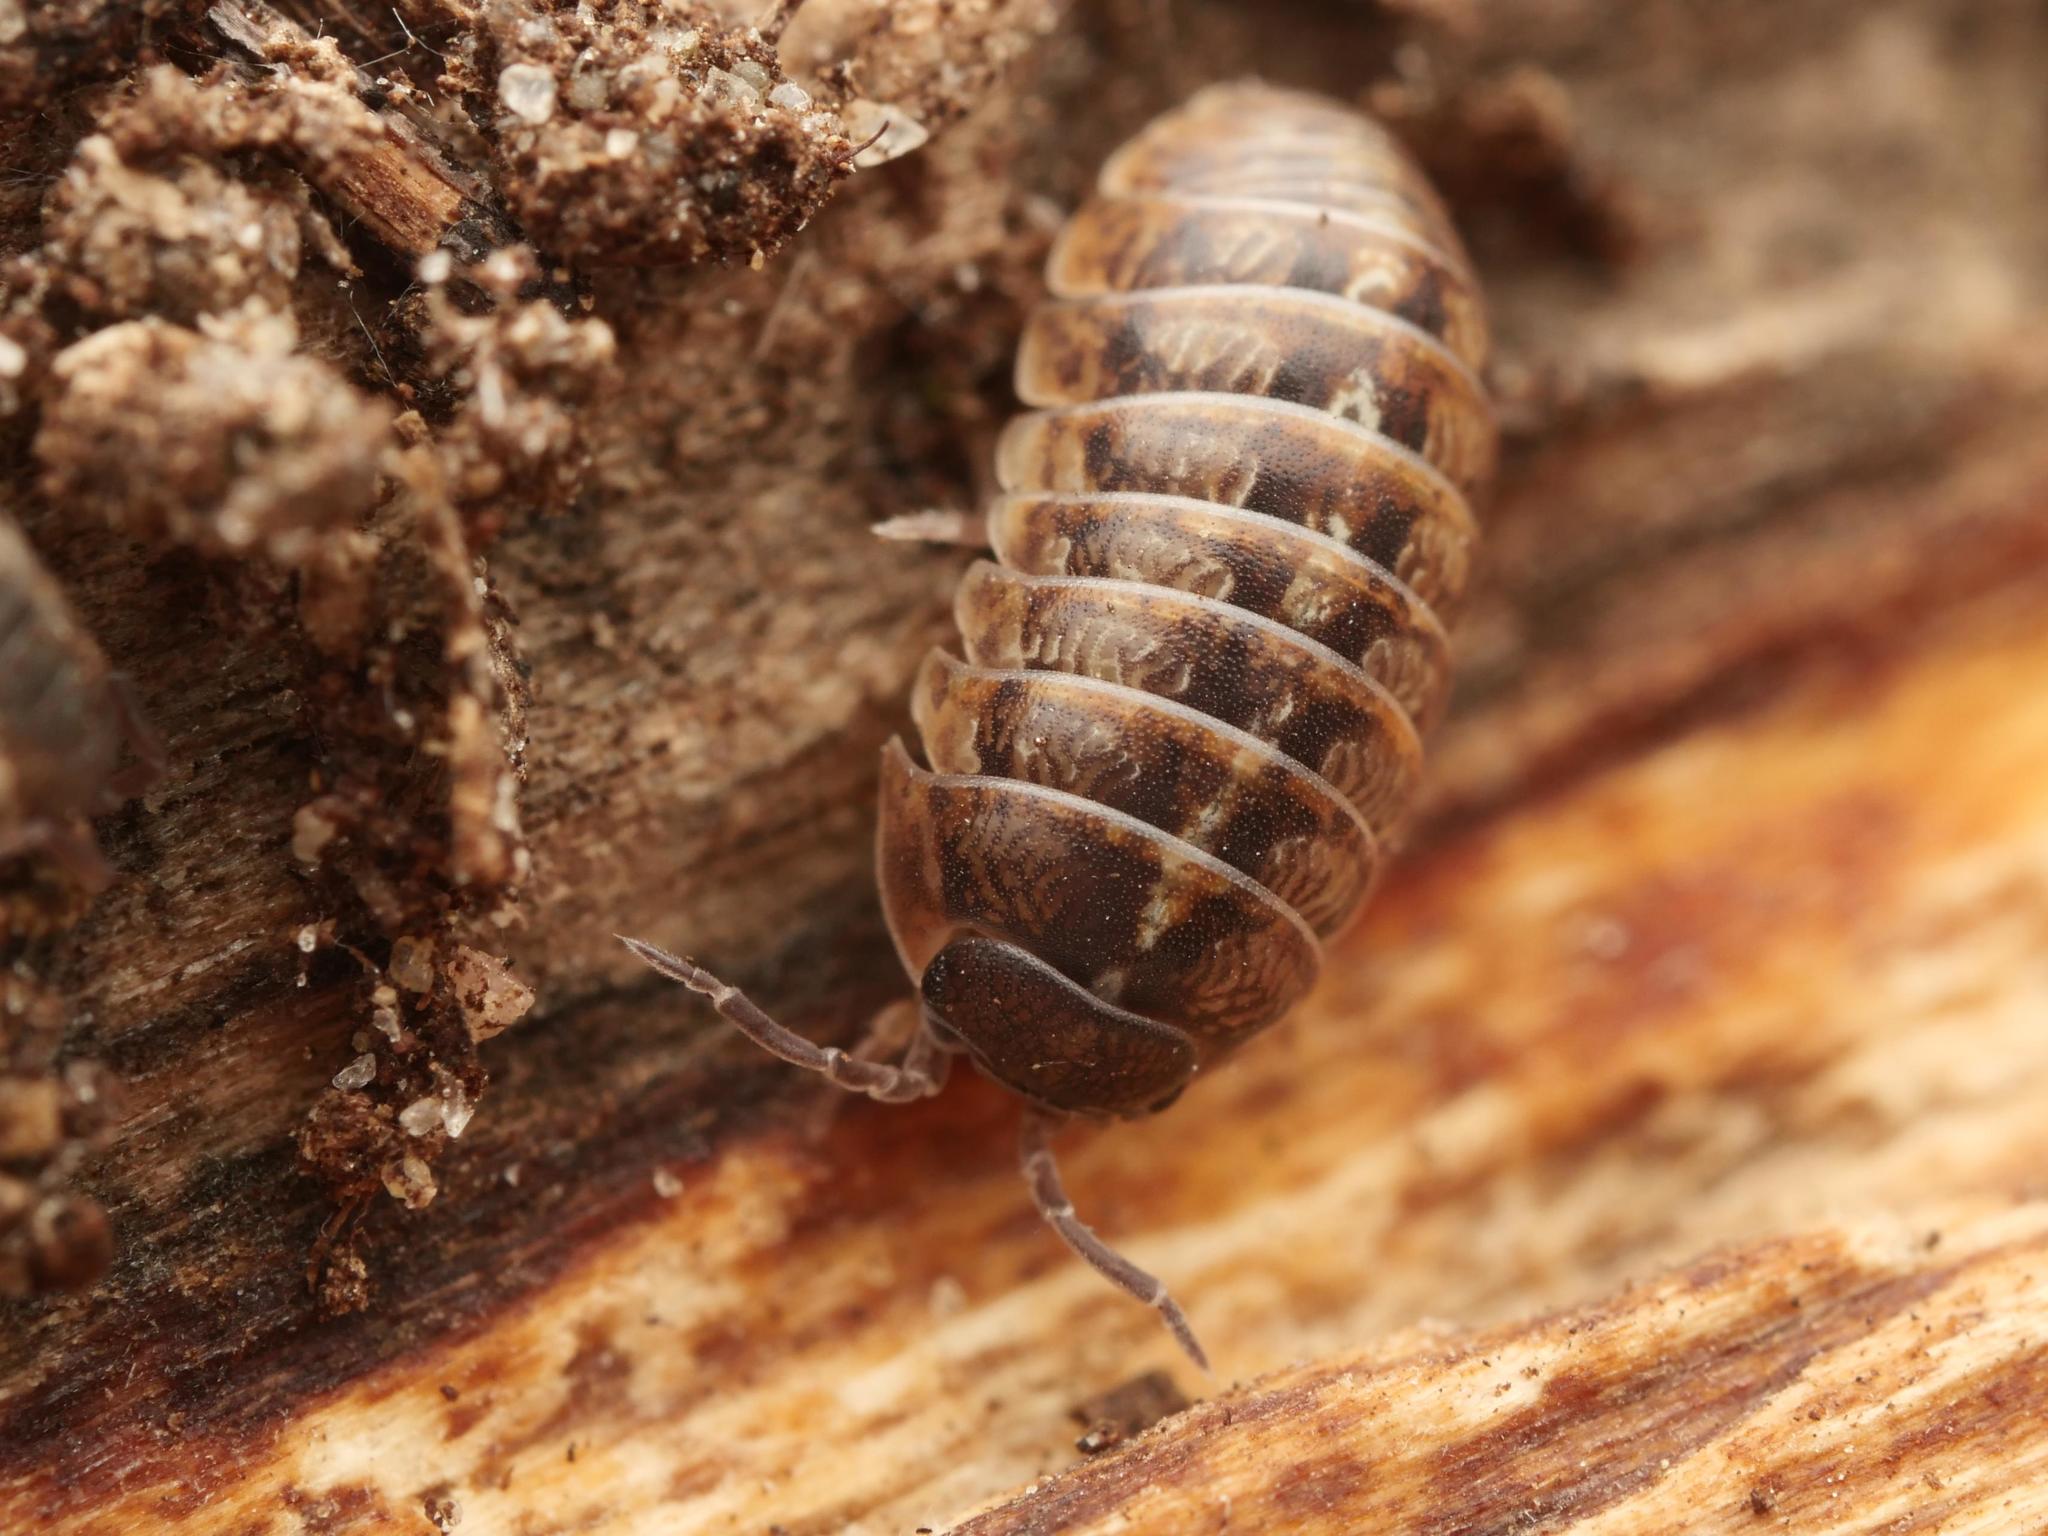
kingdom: Animalia
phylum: Arthropoda
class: Malacostraca
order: Isopoda
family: Armadillidiidae
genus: Armadillidium
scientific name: Armadillidium vulgare
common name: Common pill woodlouse
